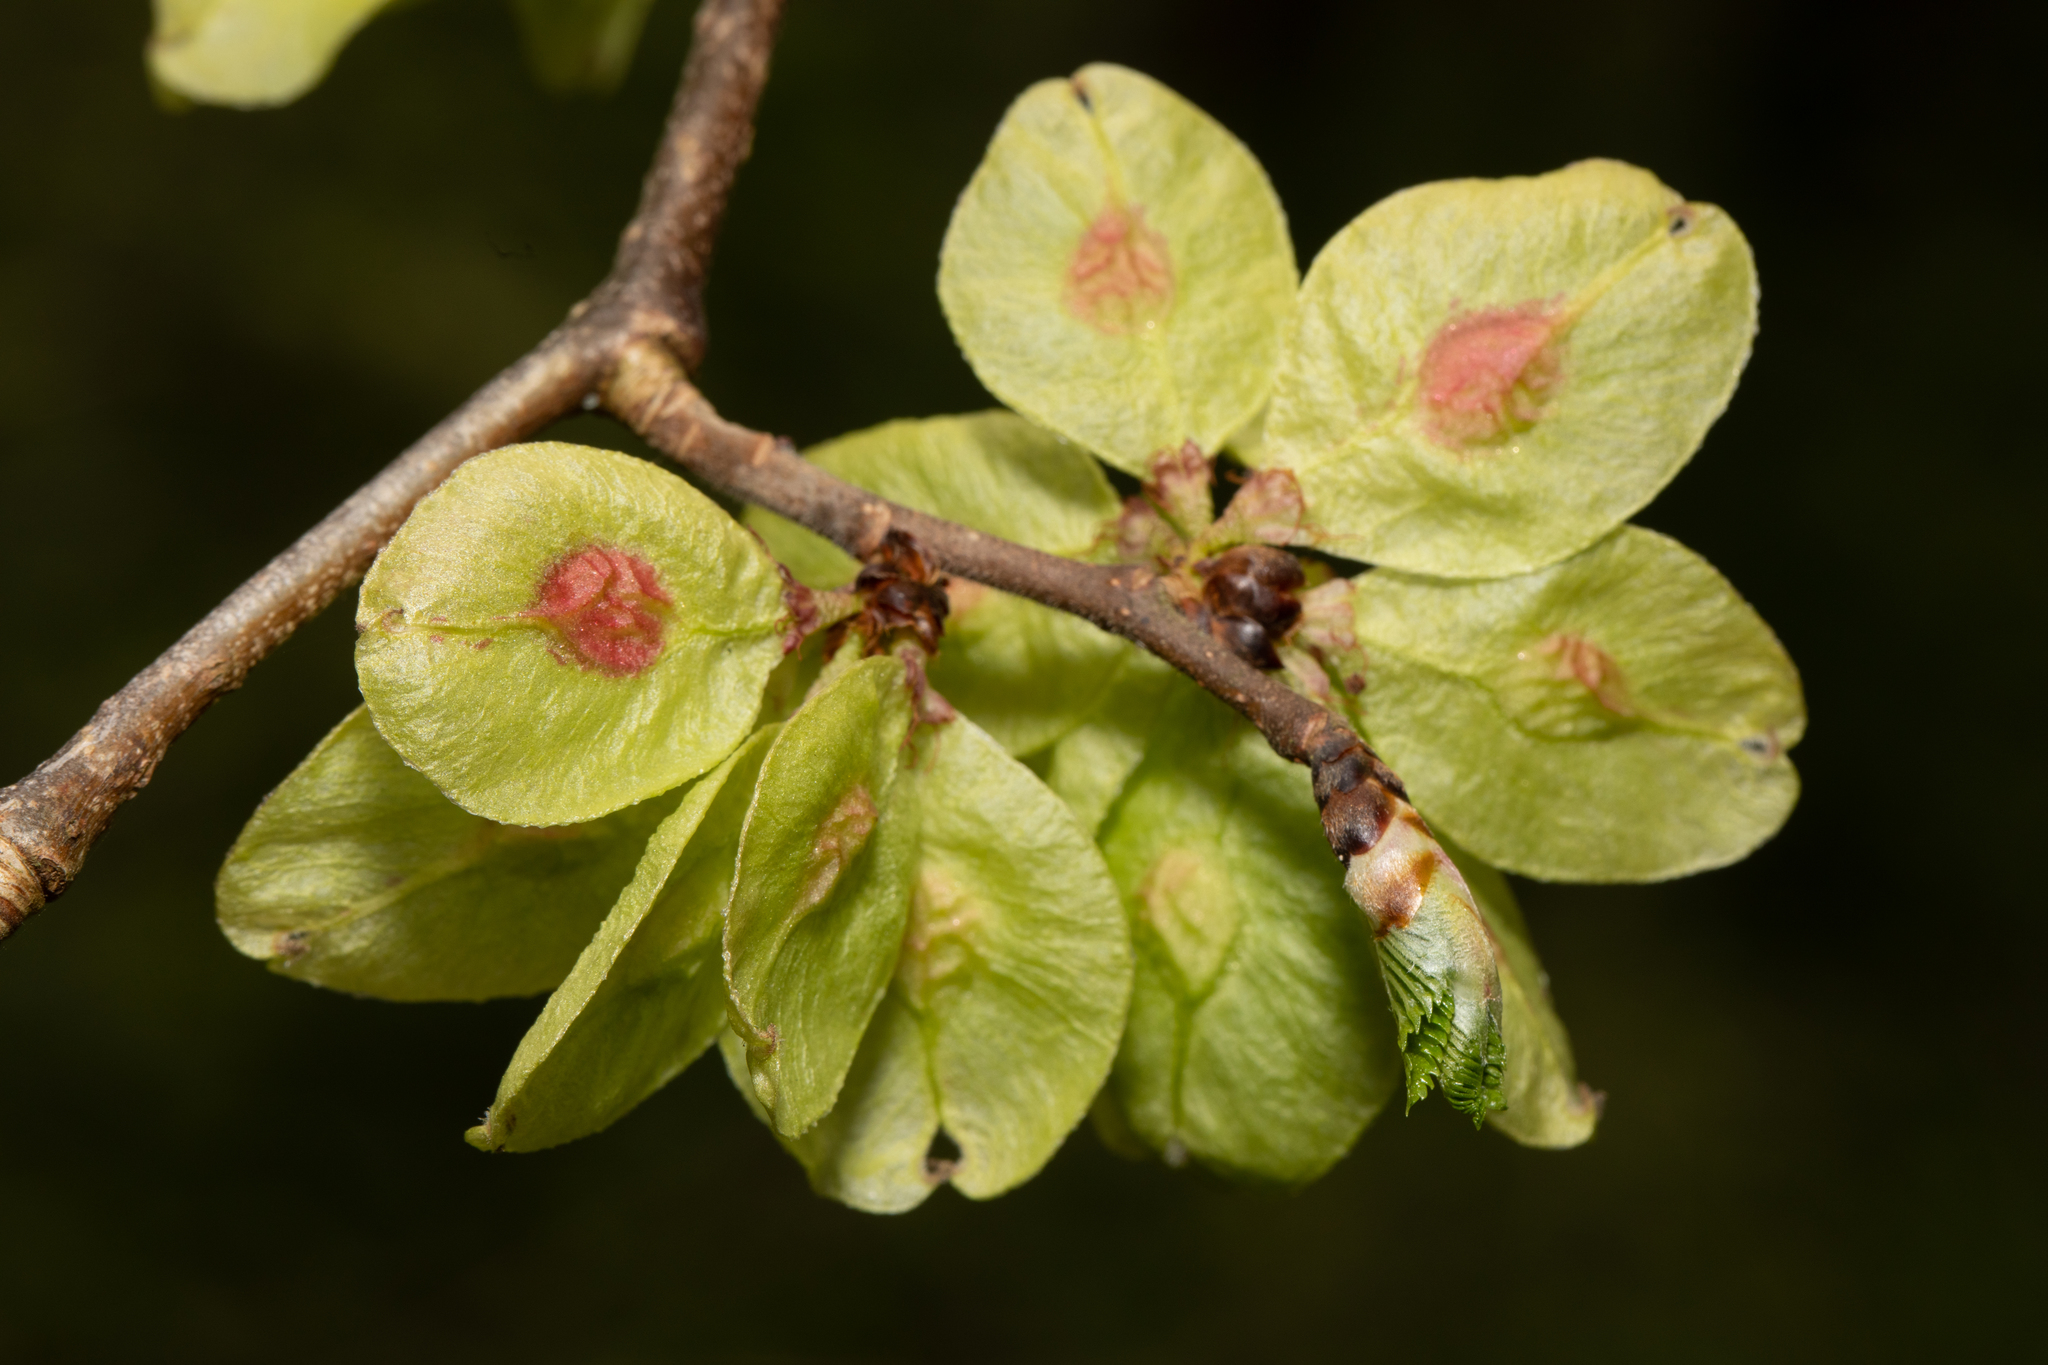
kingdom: Plantae
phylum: Tracheophyta
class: Magnoliopsida
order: Rosales
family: Ulmaceae
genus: Ulmus
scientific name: Ulmus glabra
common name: Wych elm
